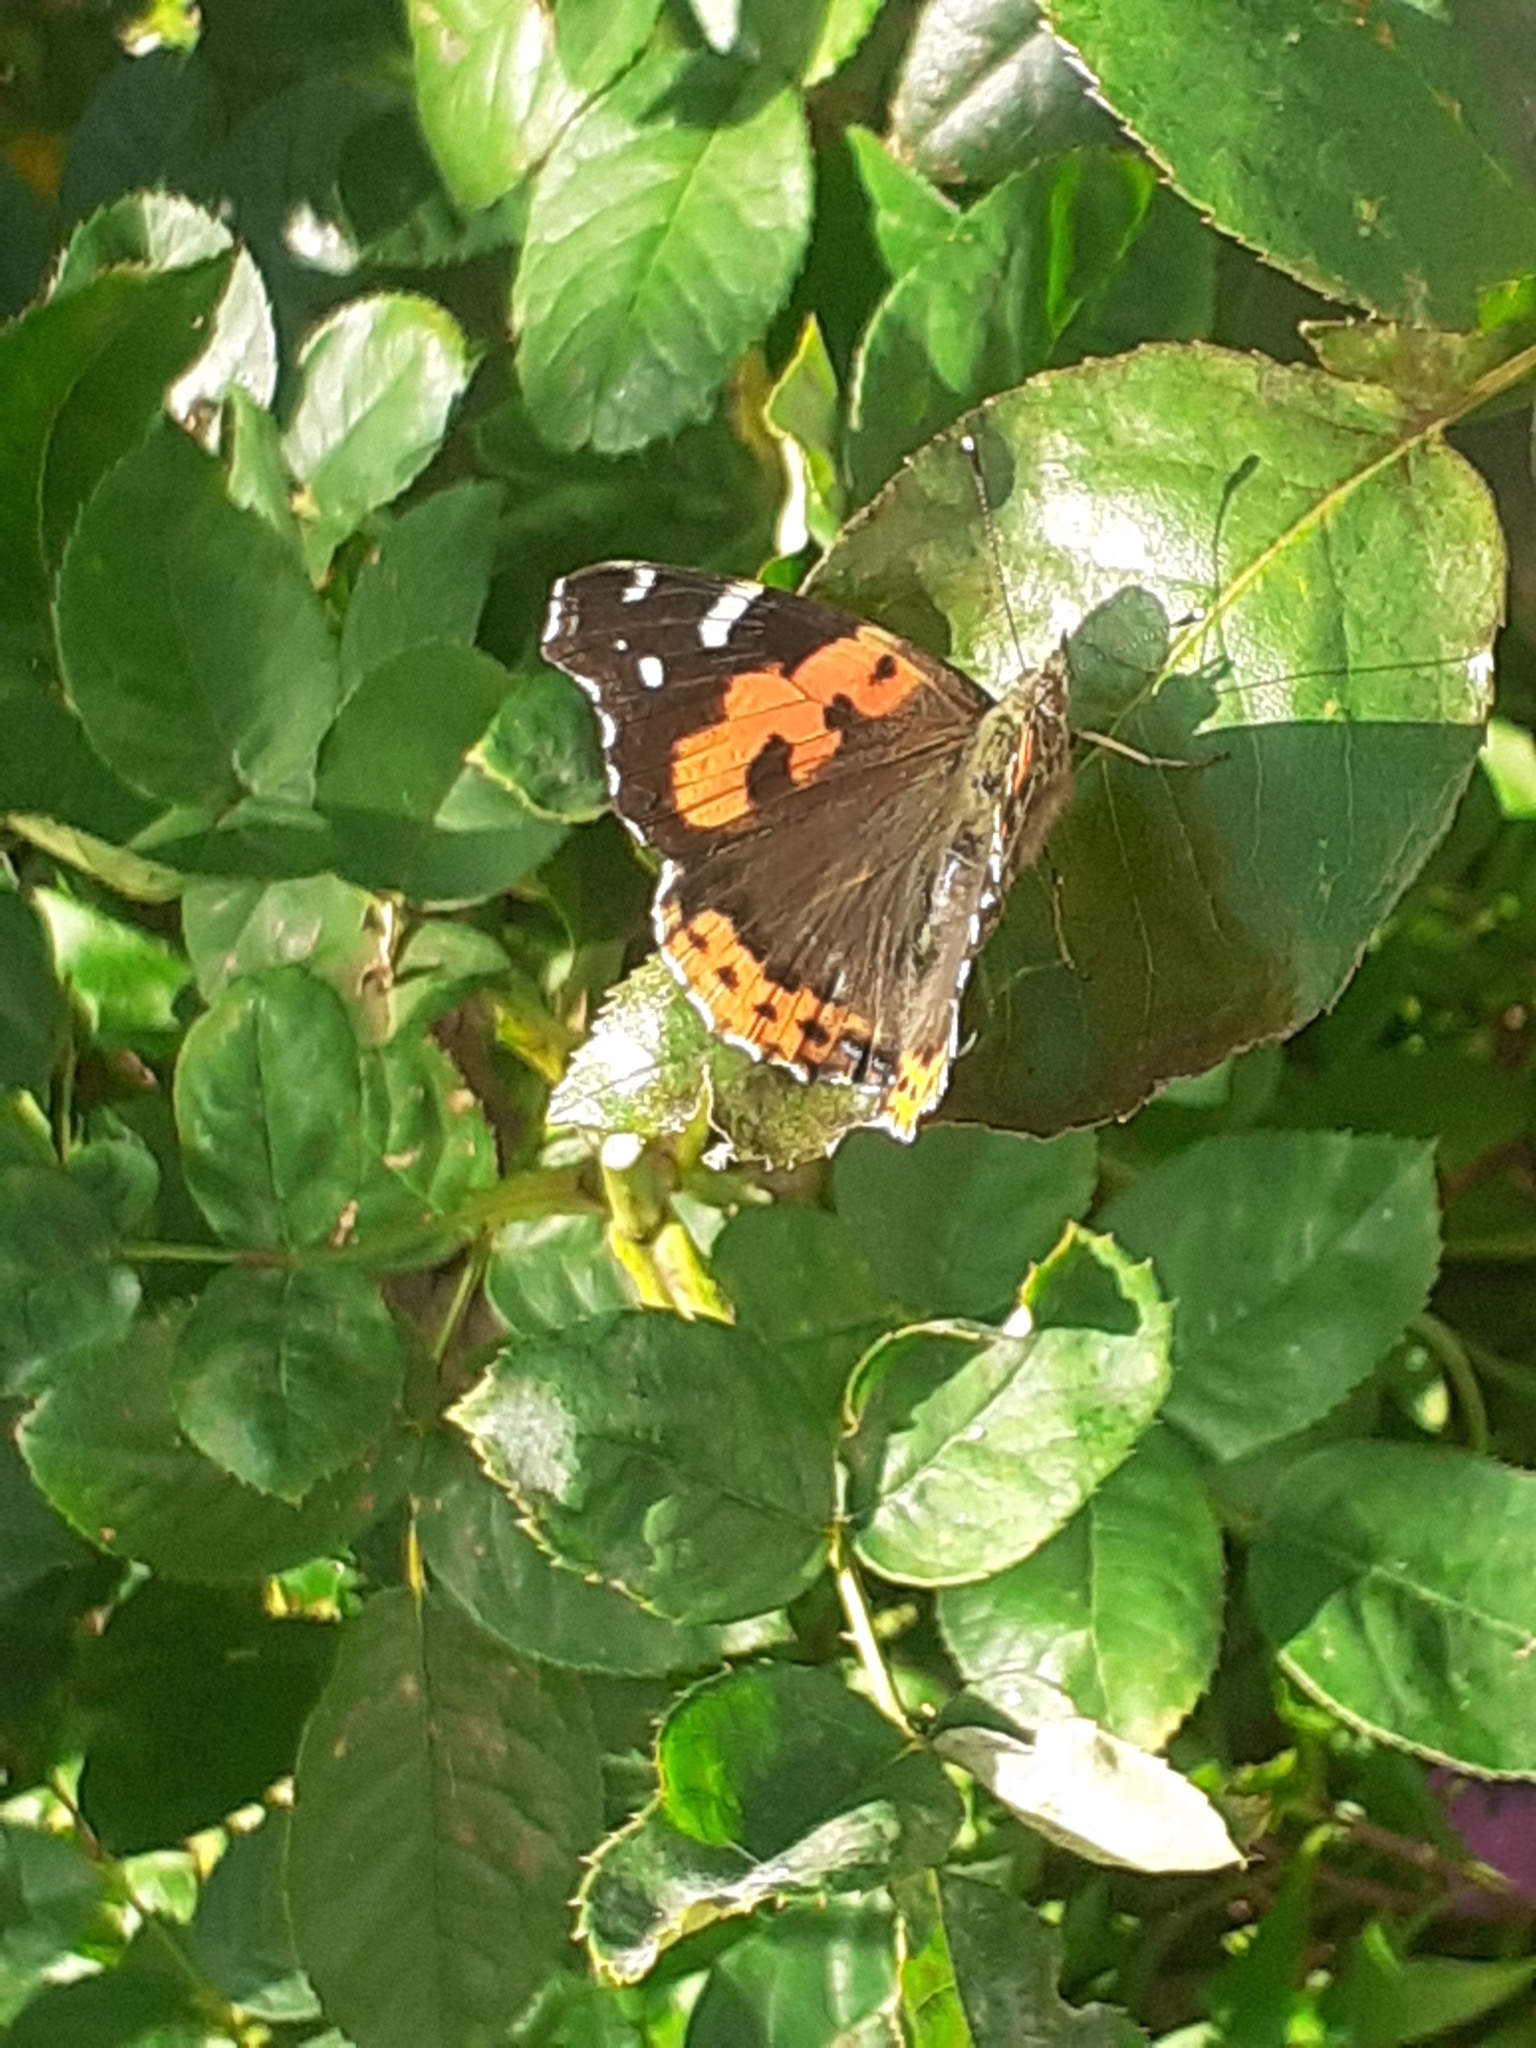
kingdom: Animalia
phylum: Arthropoda
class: Insecta
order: Lepidoptera
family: Nymphalidae
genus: Vanessa
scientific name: Vanessa vulcania
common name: Canary red admiral
